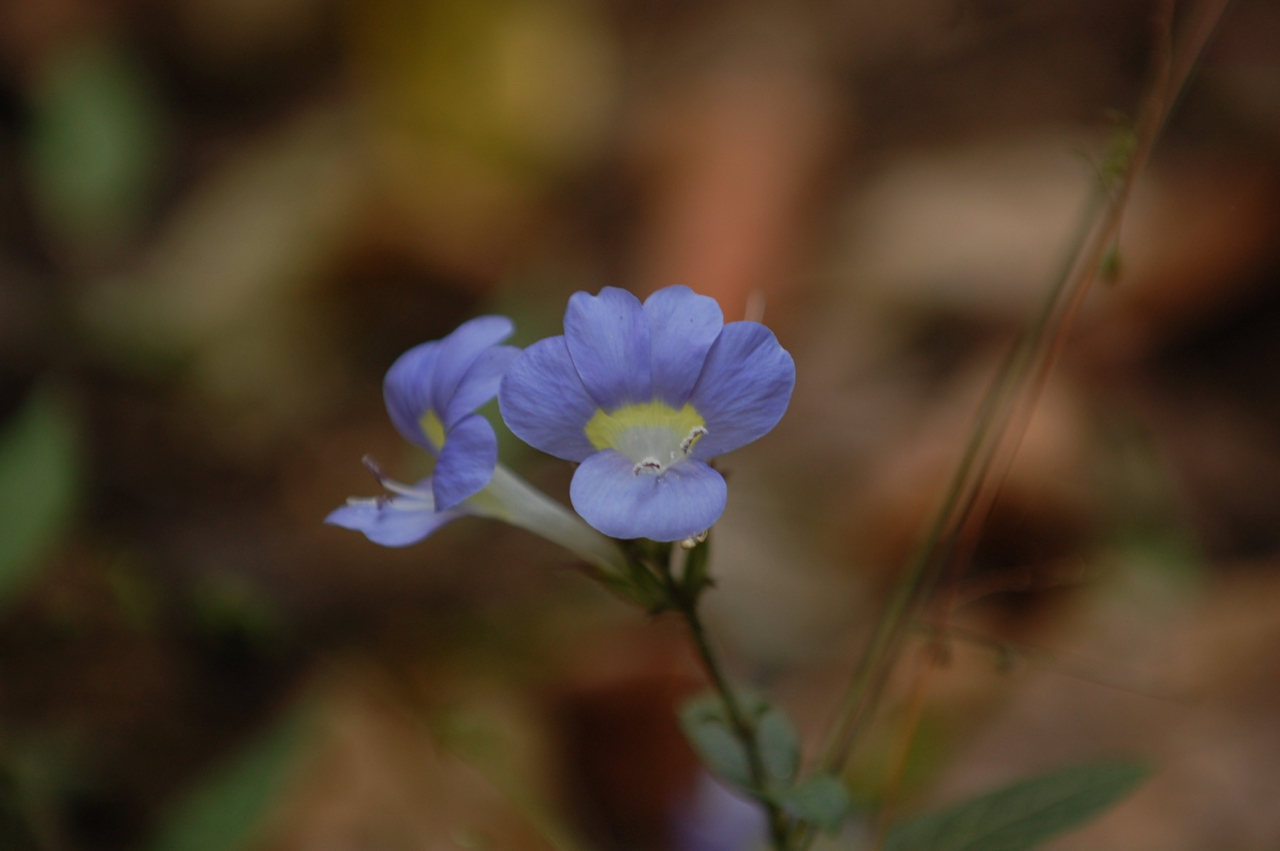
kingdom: Plantae
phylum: Tracheophyta
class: Magnoliopsida
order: Lamiales
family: Acanthaceae
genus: Barleria
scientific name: Barleria courtallica
